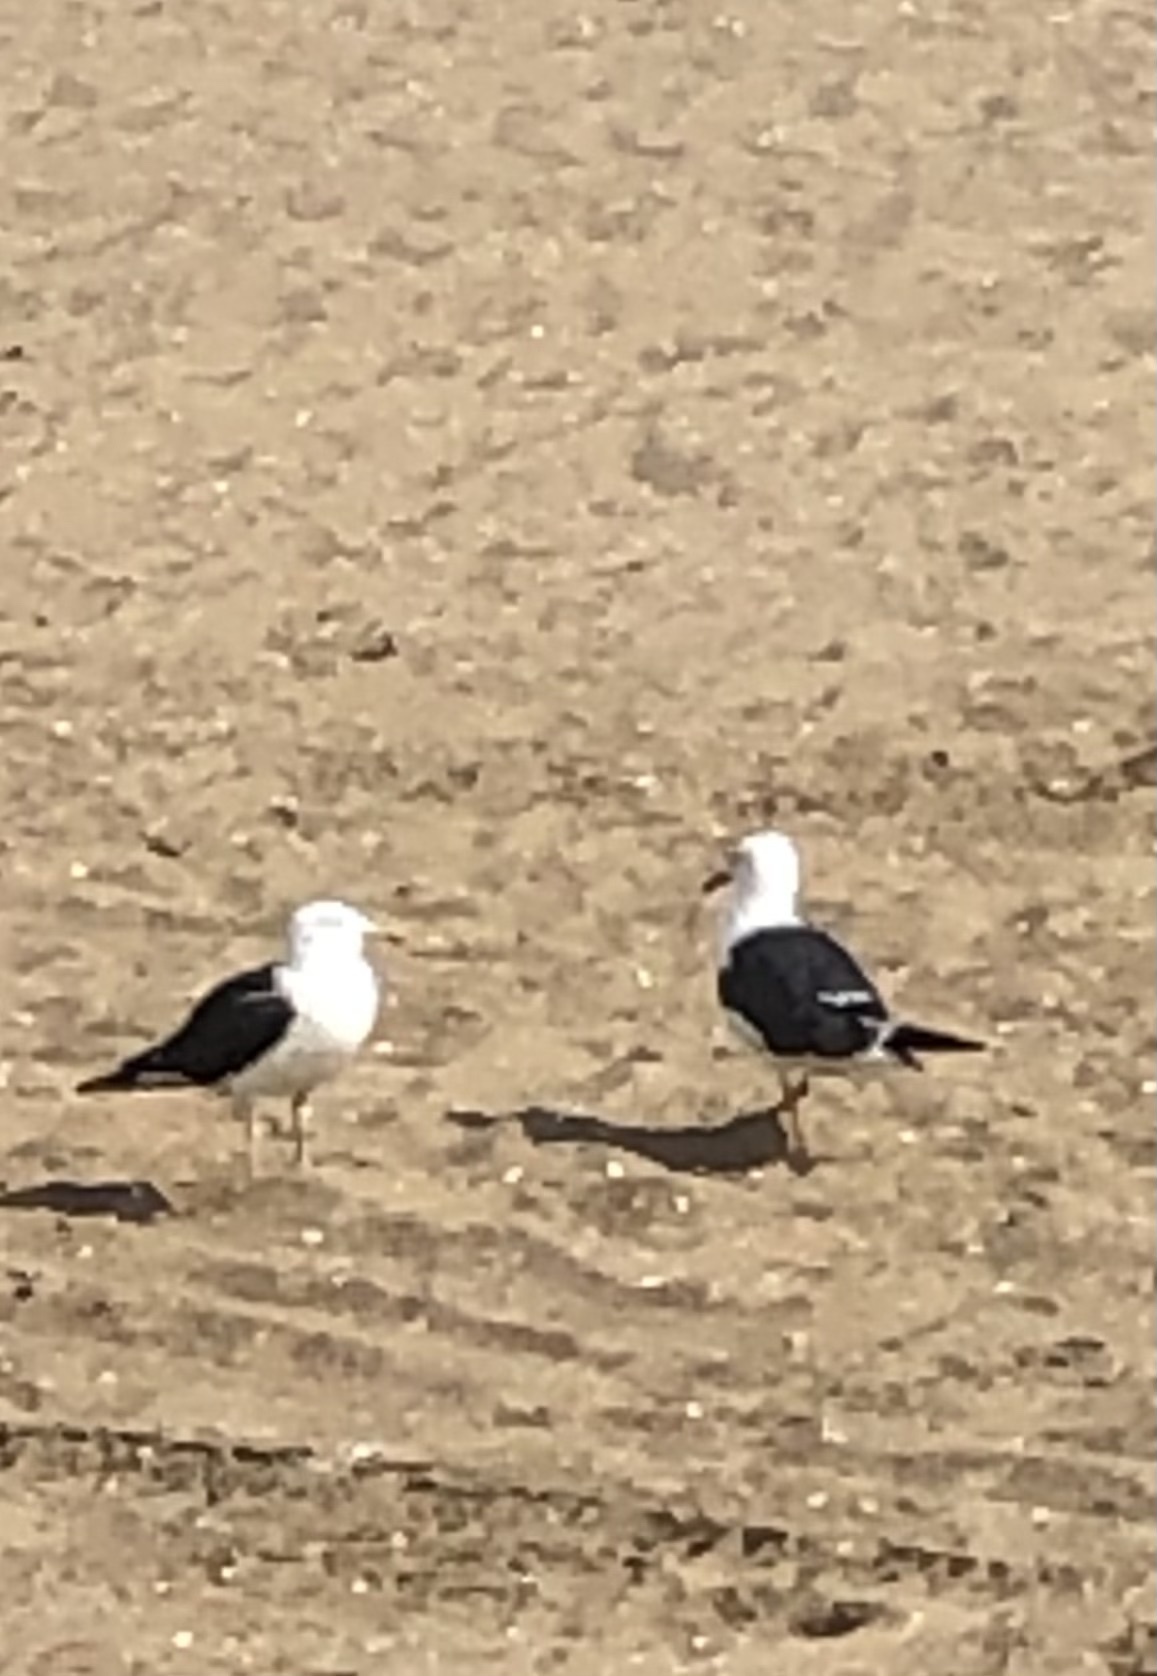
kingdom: Animalia
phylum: Chordata
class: Aves
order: Charadriiformes
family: Laridae
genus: Larus
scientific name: Larus fuscus
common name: Lesser black-backed gull
